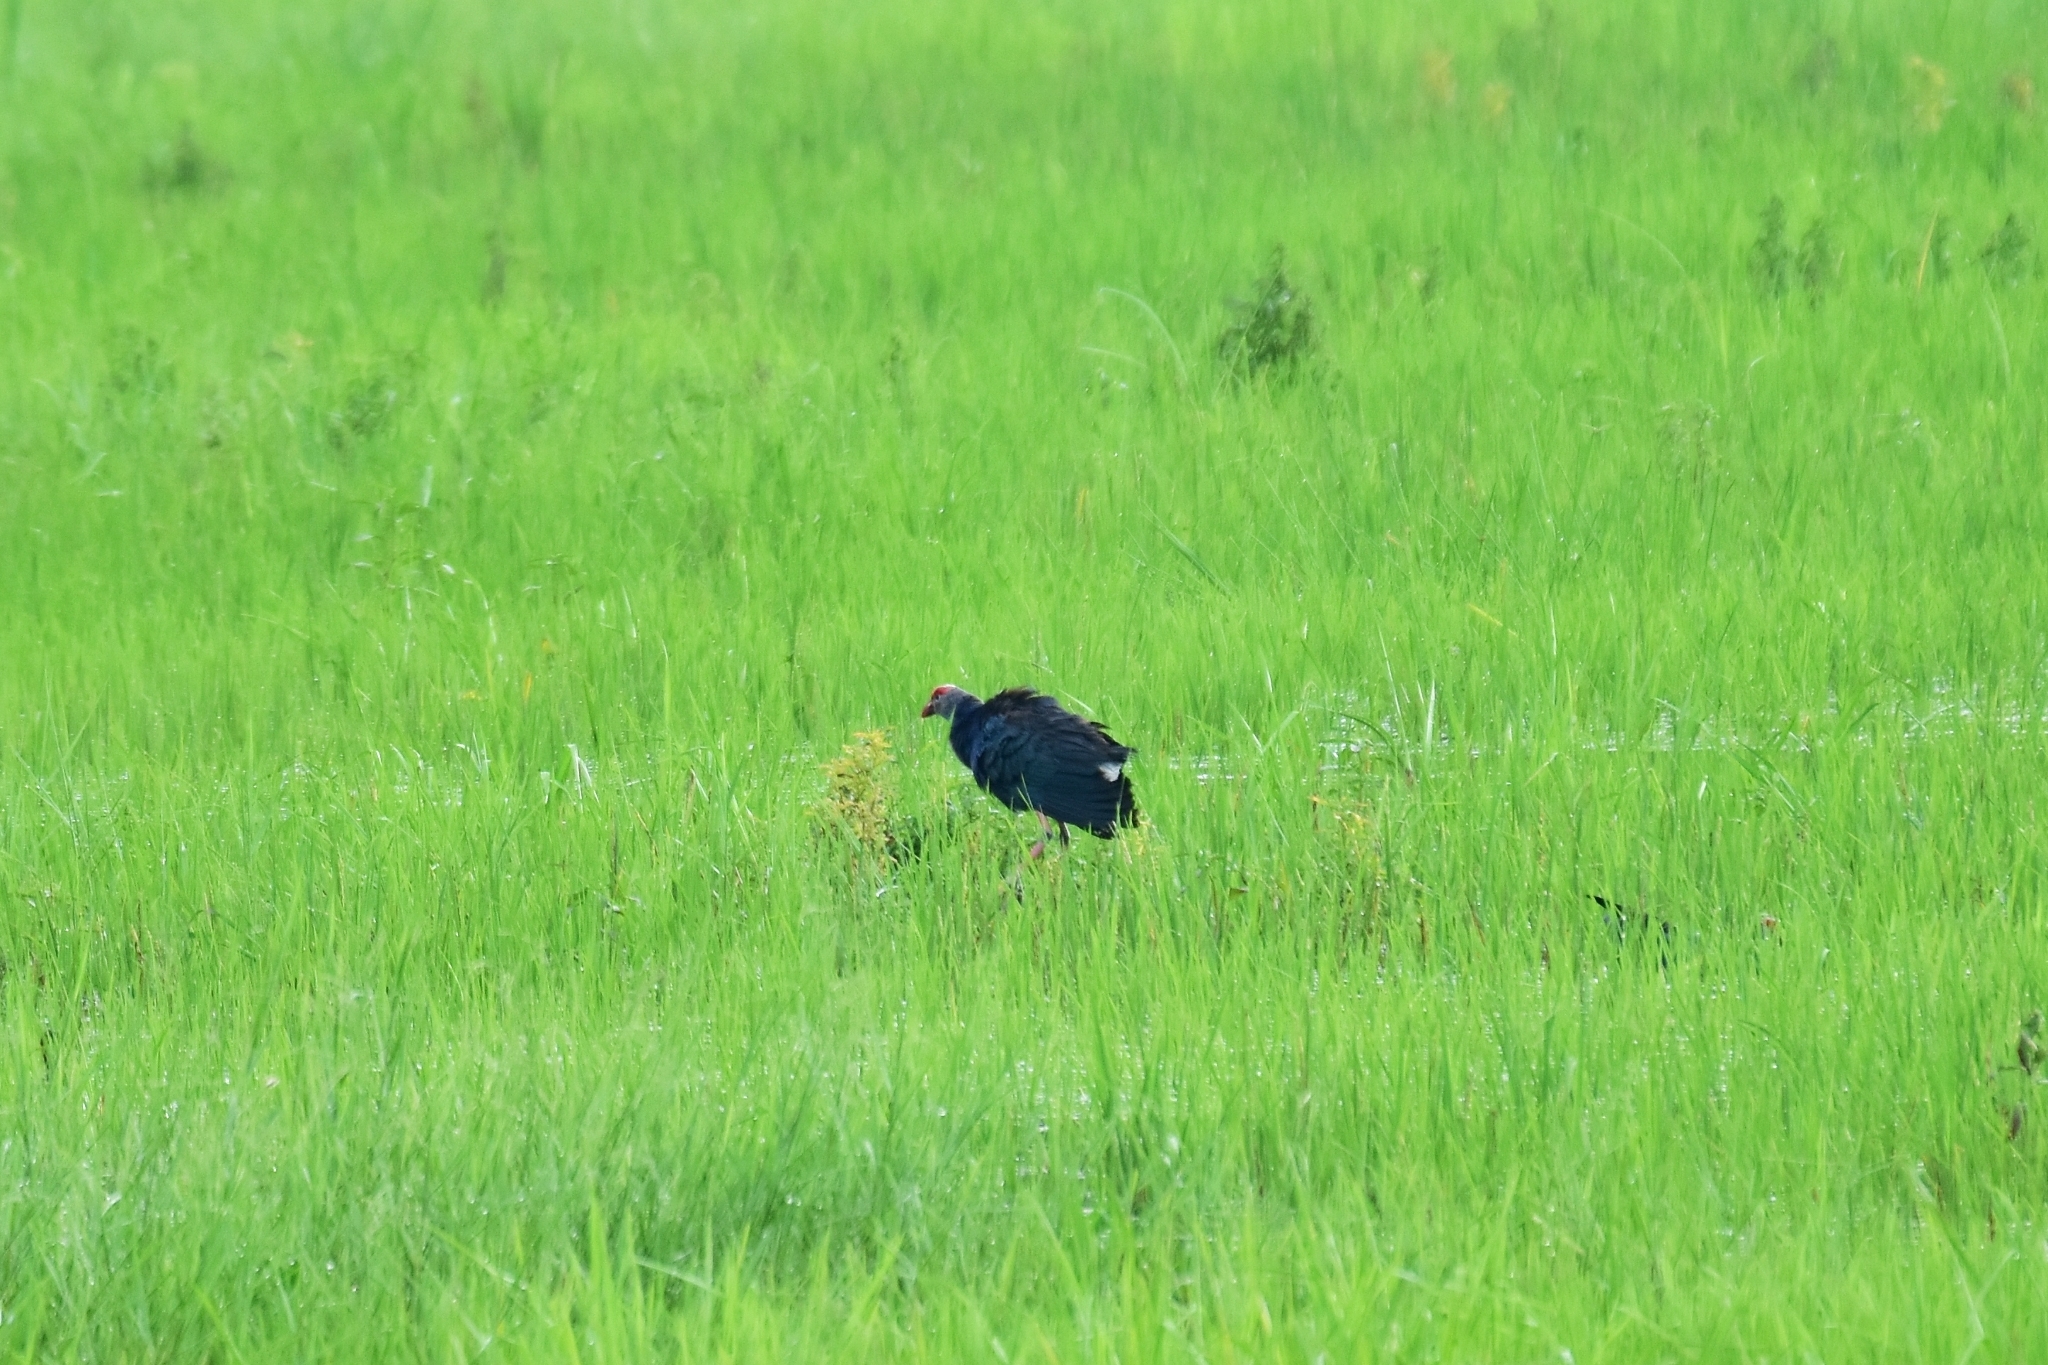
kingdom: Animalia
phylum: Chordata
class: Aves
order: Gruiformes
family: Rallidae
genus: Porphyrio
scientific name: Porphyrio porphyrio
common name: Purple swamphen
